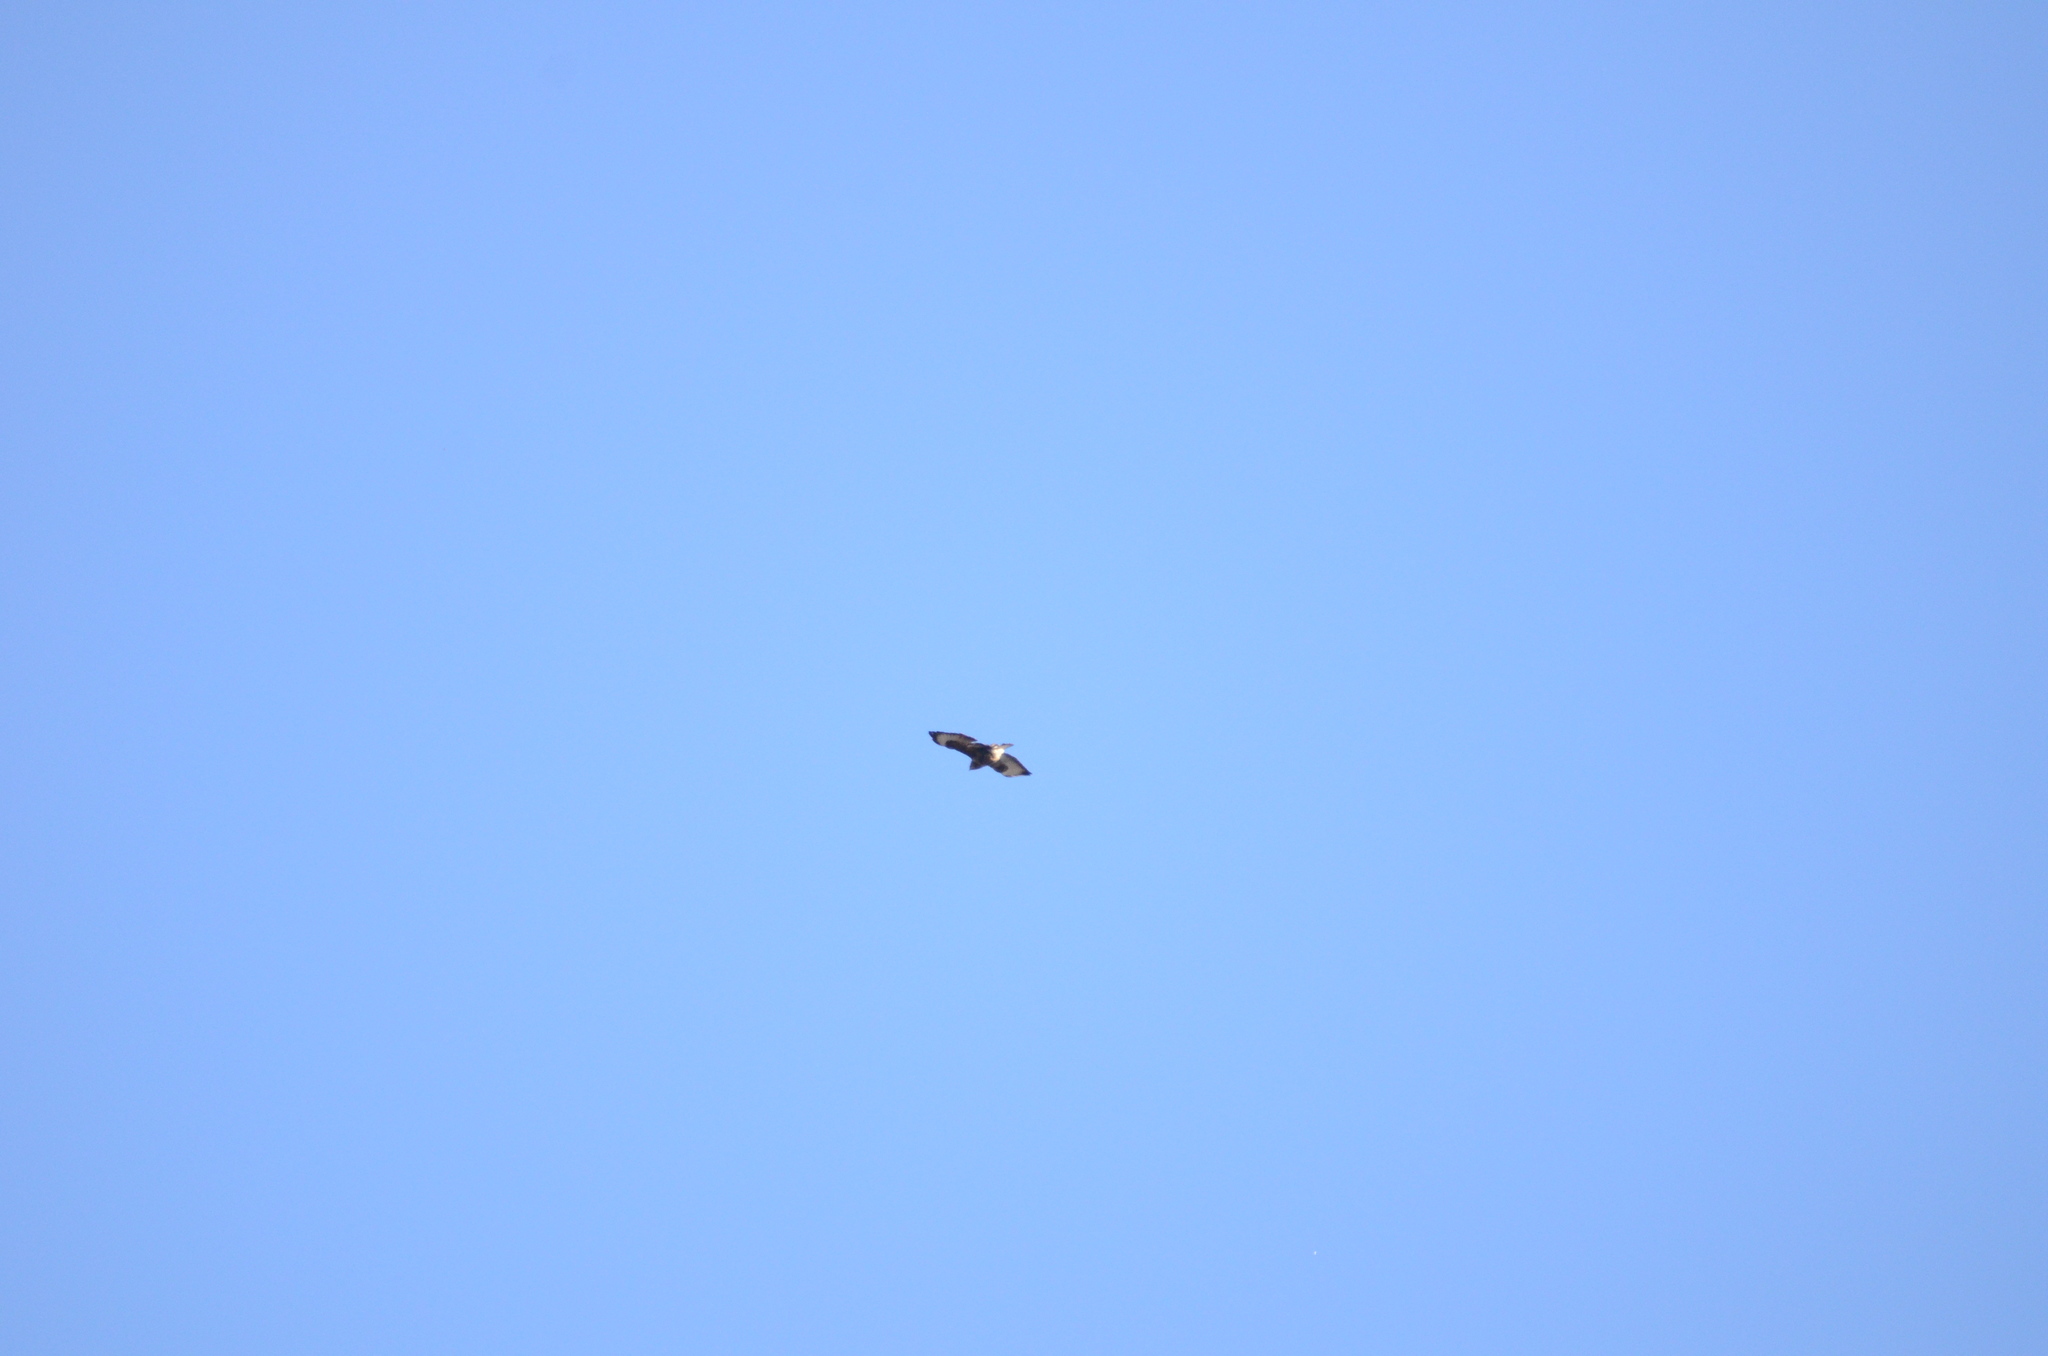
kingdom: Animalia
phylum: Chordata
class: Aves
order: Accipitriformes
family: Accipitridae
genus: Buteo
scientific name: Buteo buteo
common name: Common buzzard
